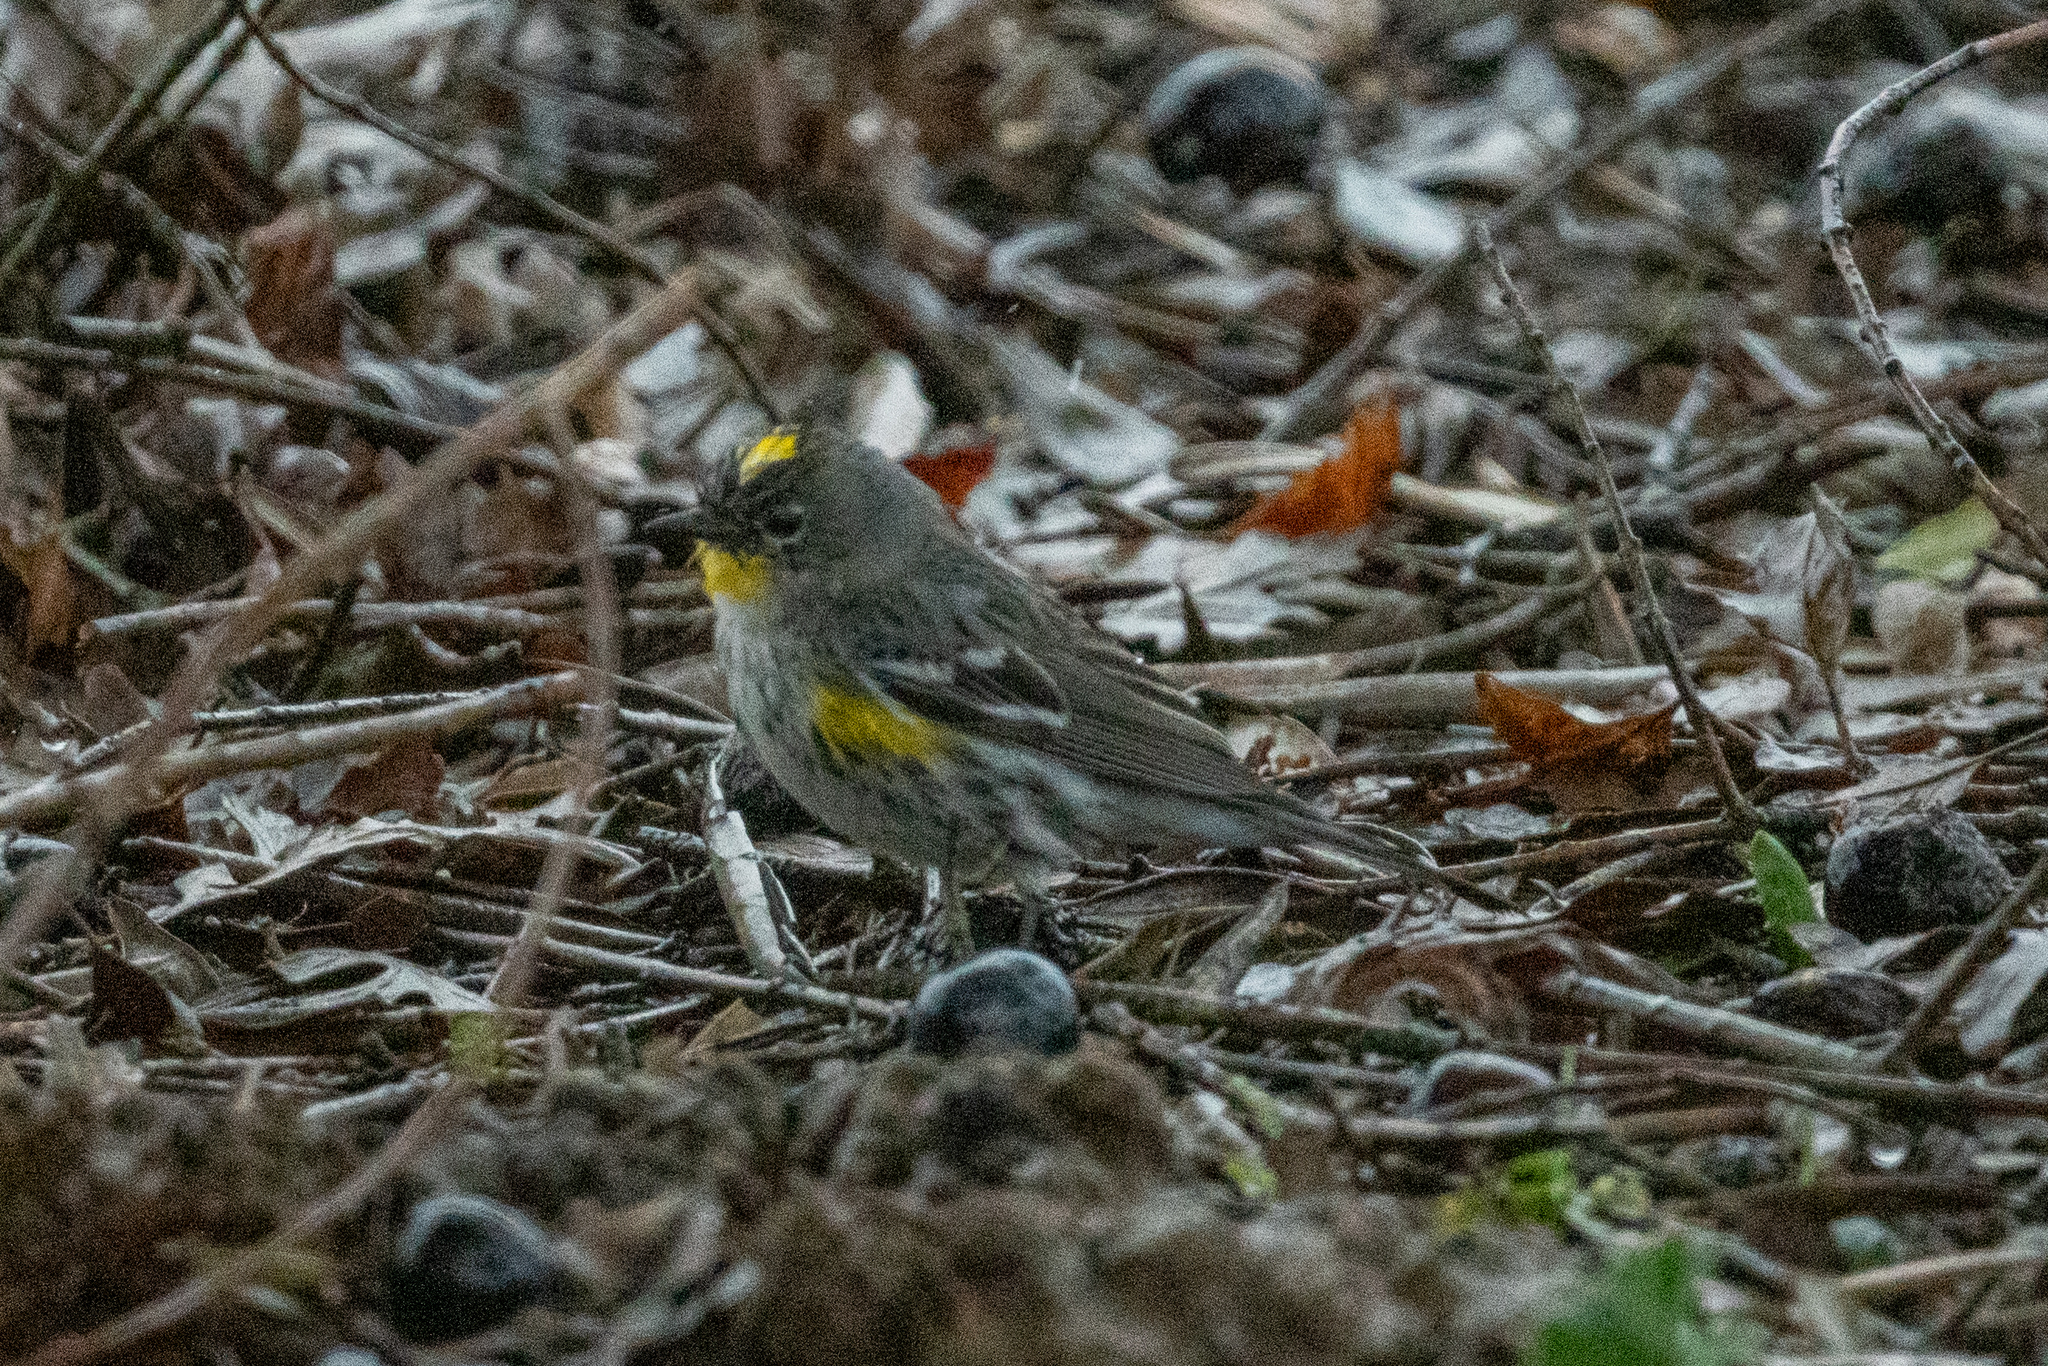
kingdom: Animalia
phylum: Chordata
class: Aves
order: Passeriformes
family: Parulidae
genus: Setophaga
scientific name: Setophaga coronata
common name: Myrtle warbler
